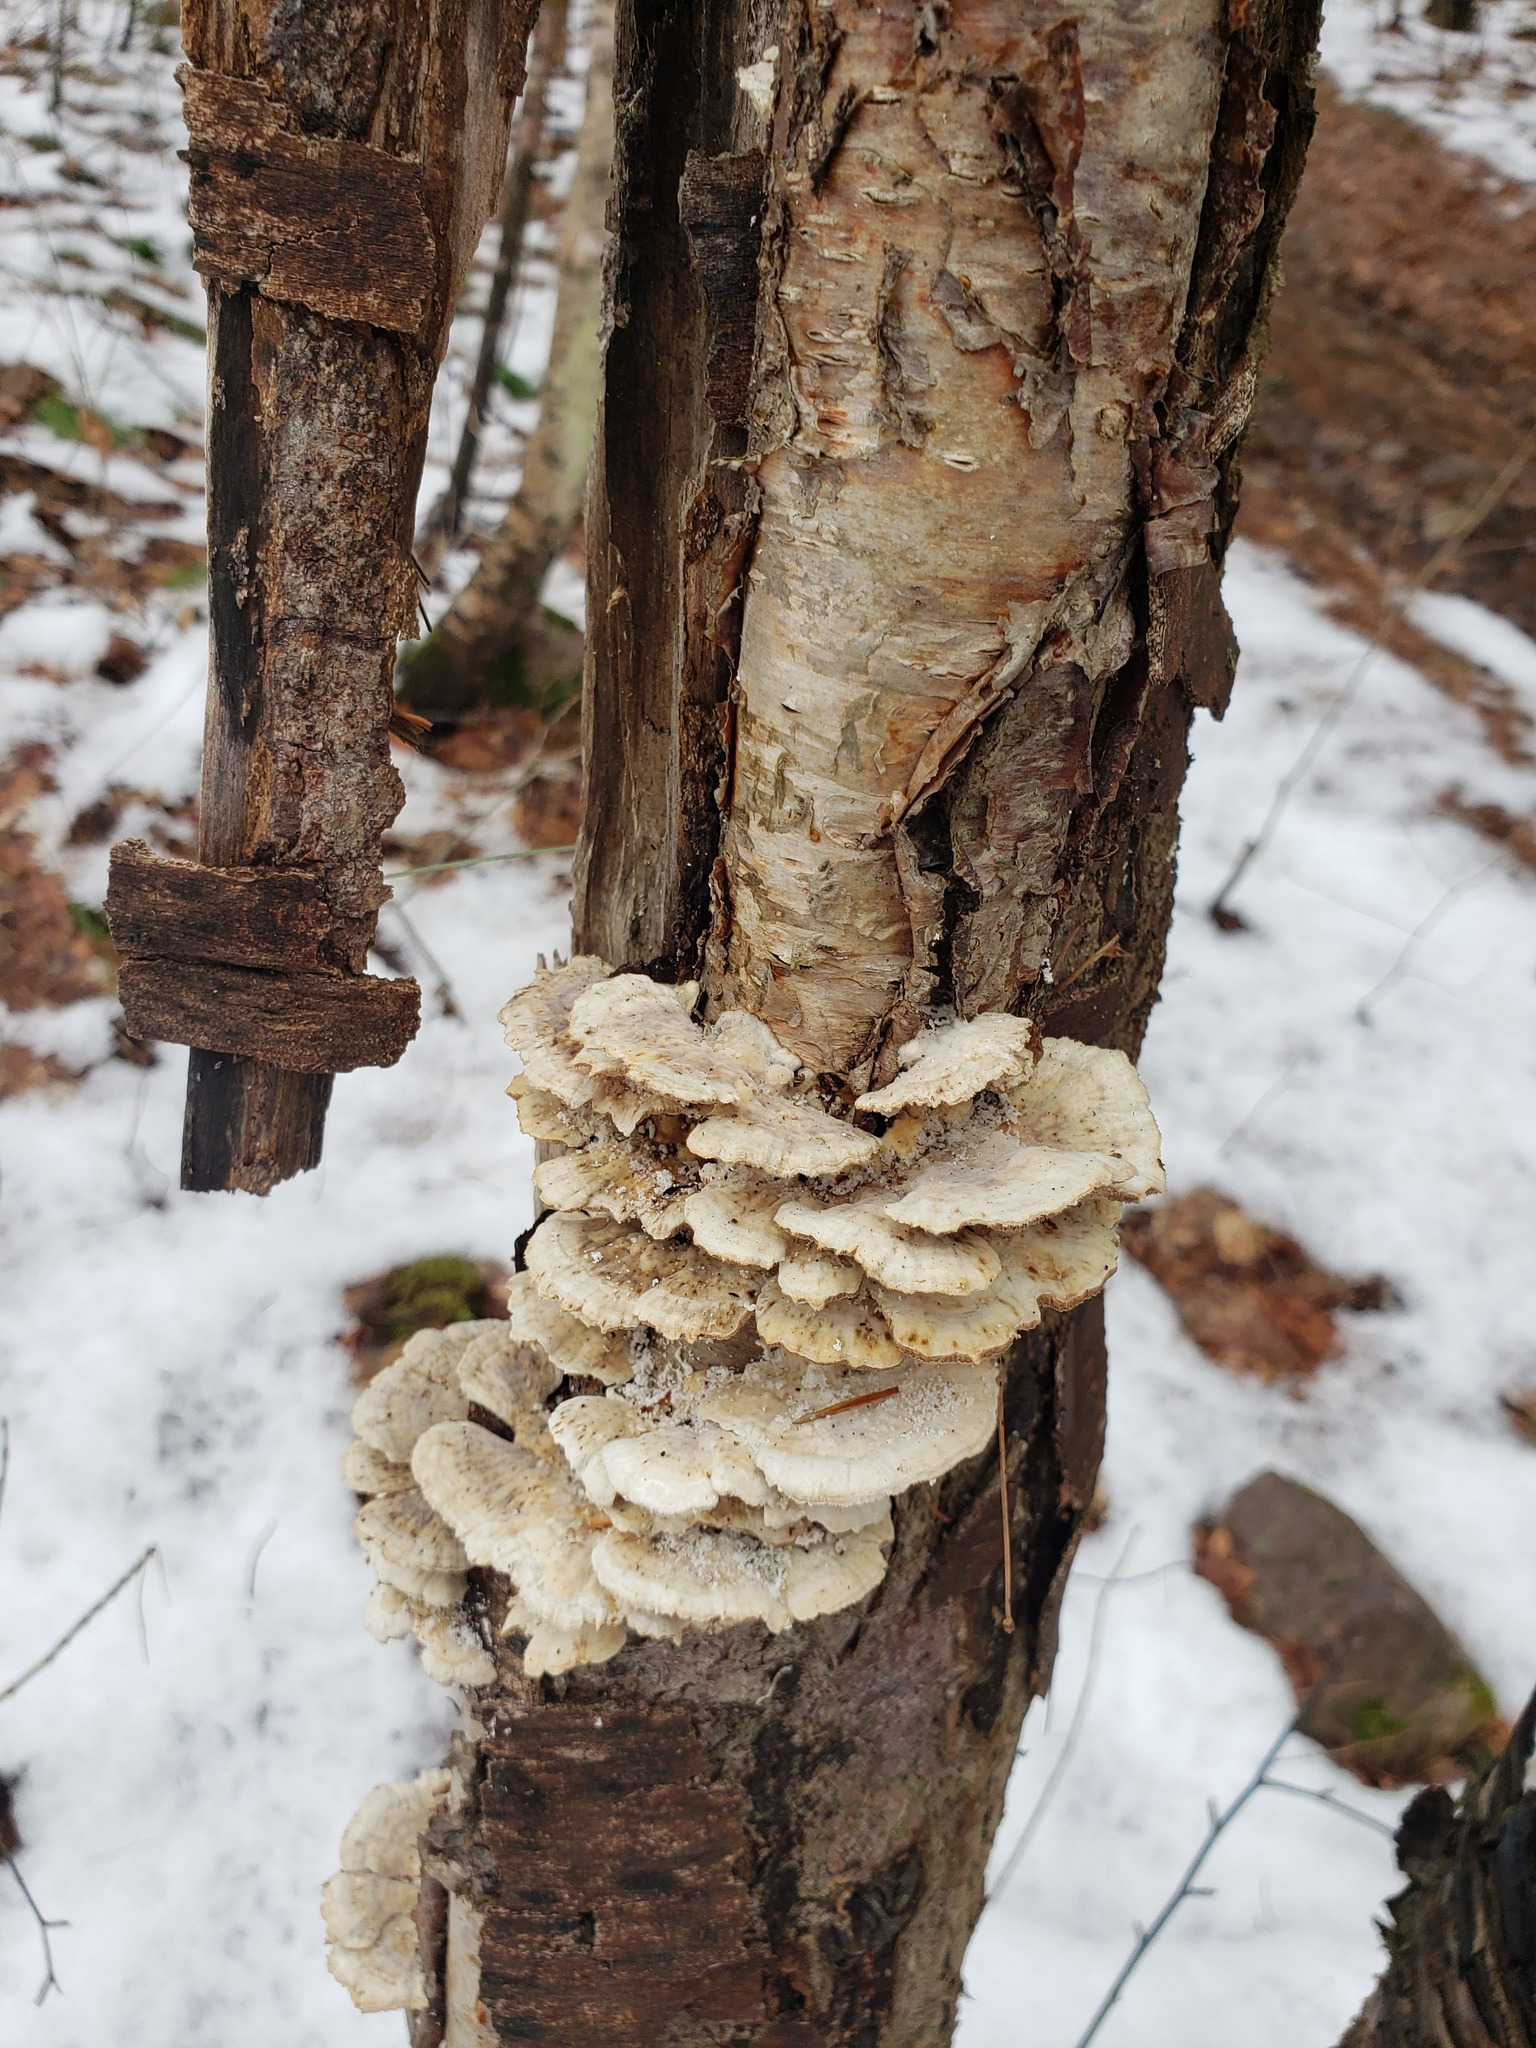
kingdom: Fungi
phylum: Basidiomycota
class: Agaricomycetes
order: Polyporales
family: Polyporaceae
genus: Trametes
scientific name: Trametes pubescens
